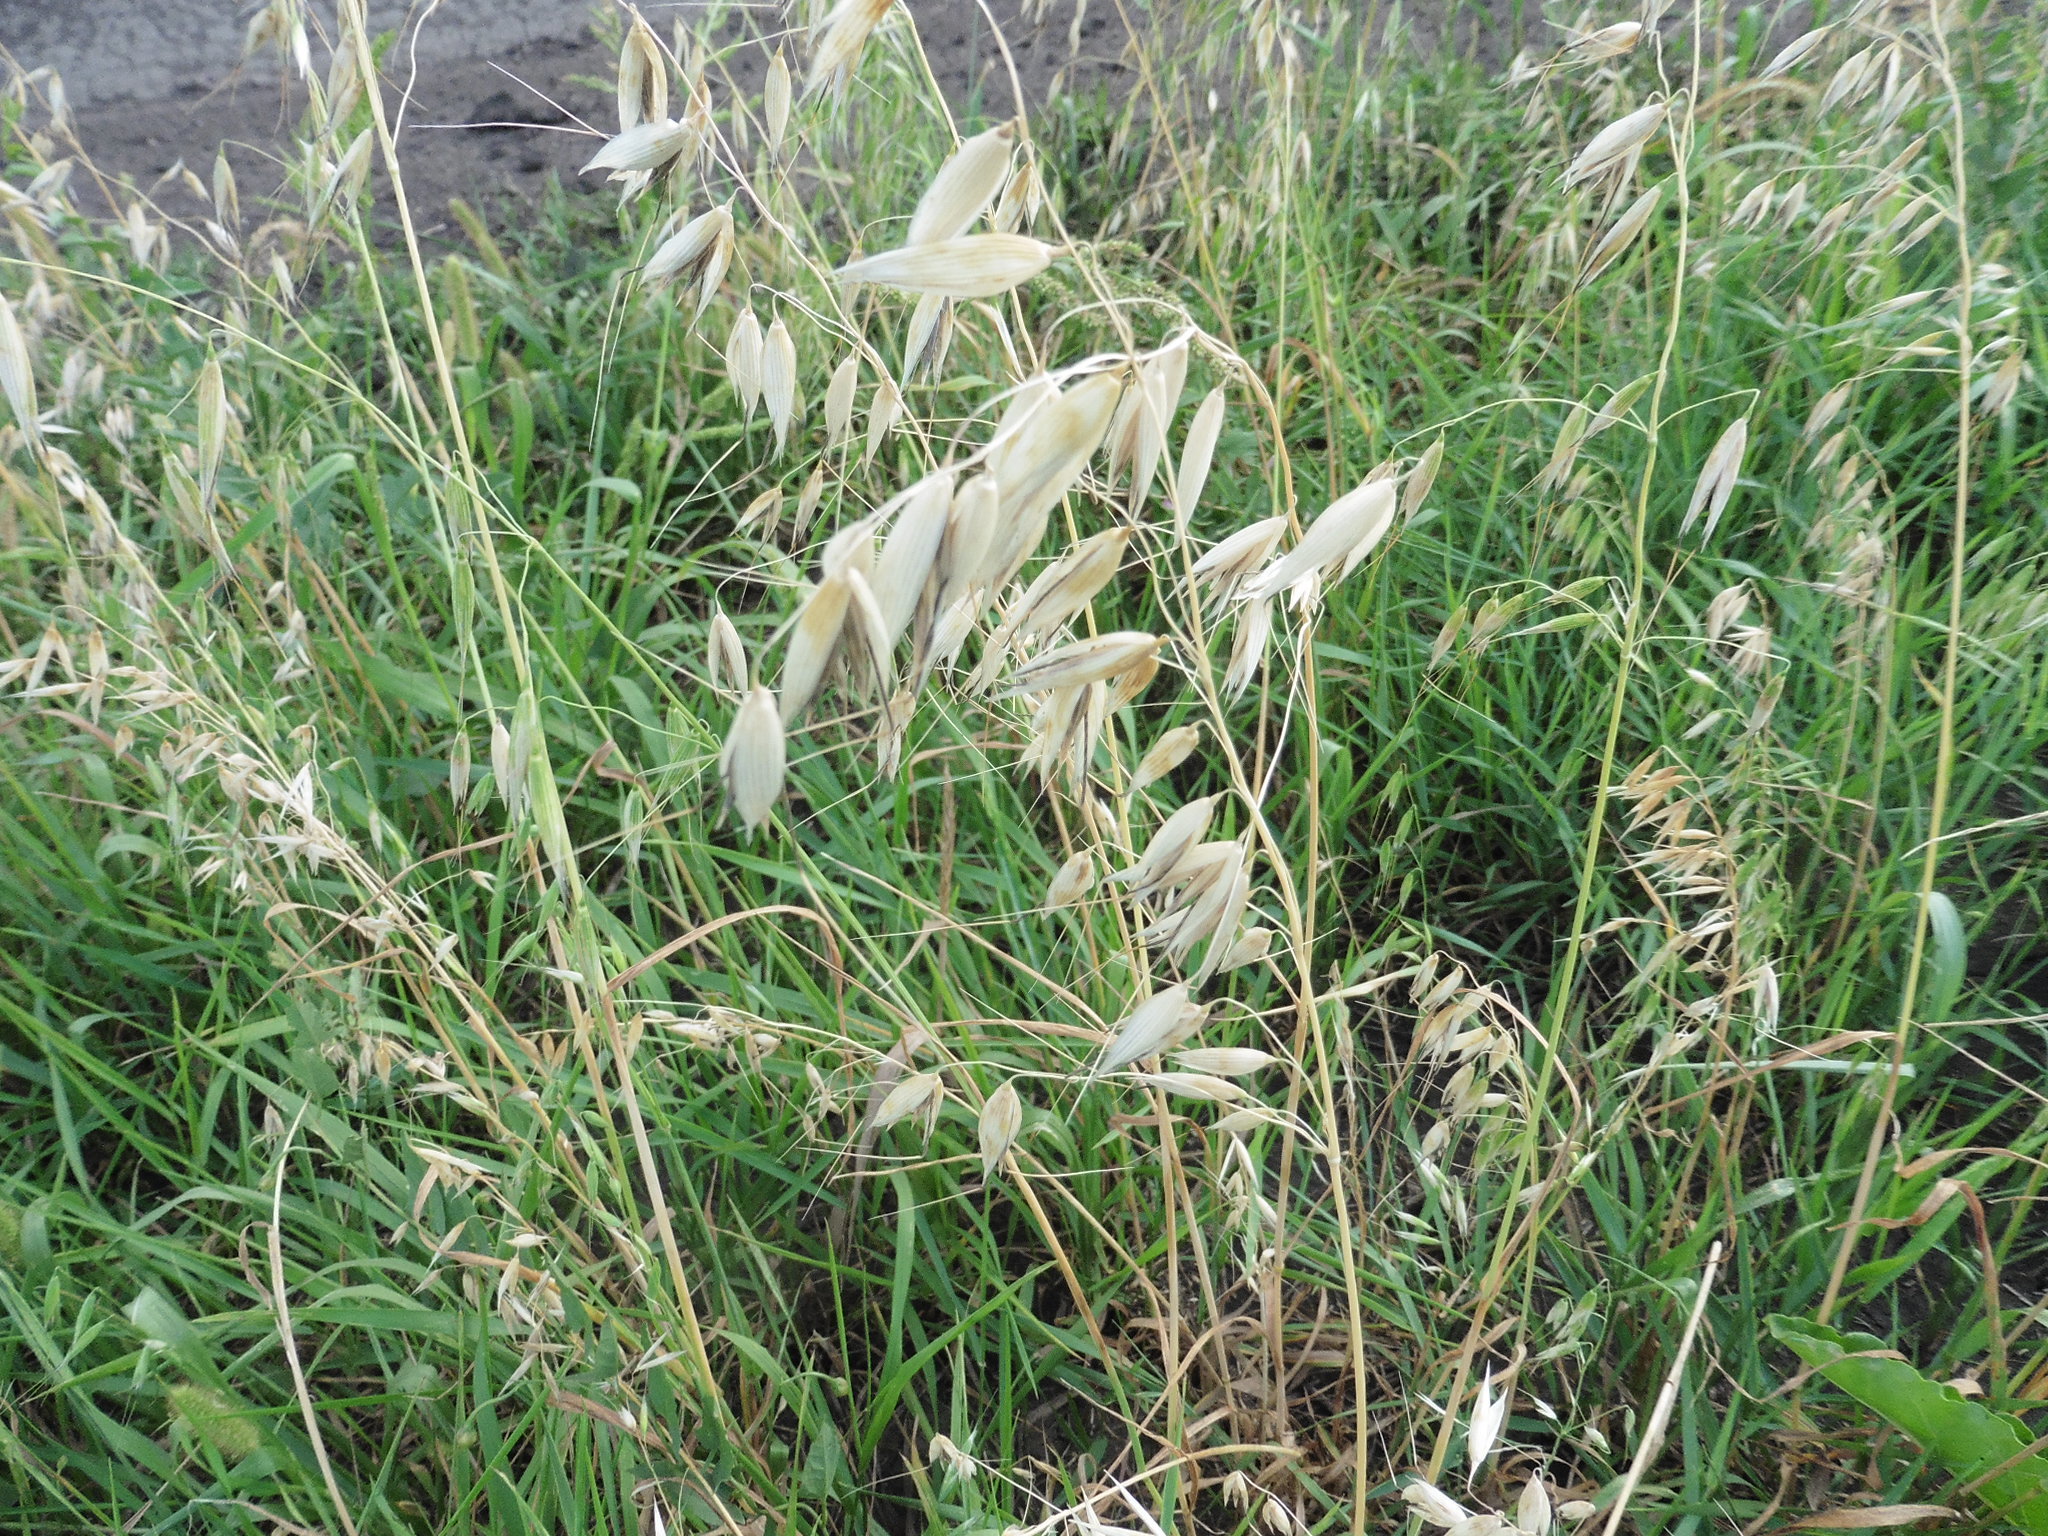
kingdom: Plantae
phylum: Tracheophyta
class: Liliopsida
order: Poales
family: Poaceae
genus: Avena
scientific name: Avena fatua
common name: Wild oat
